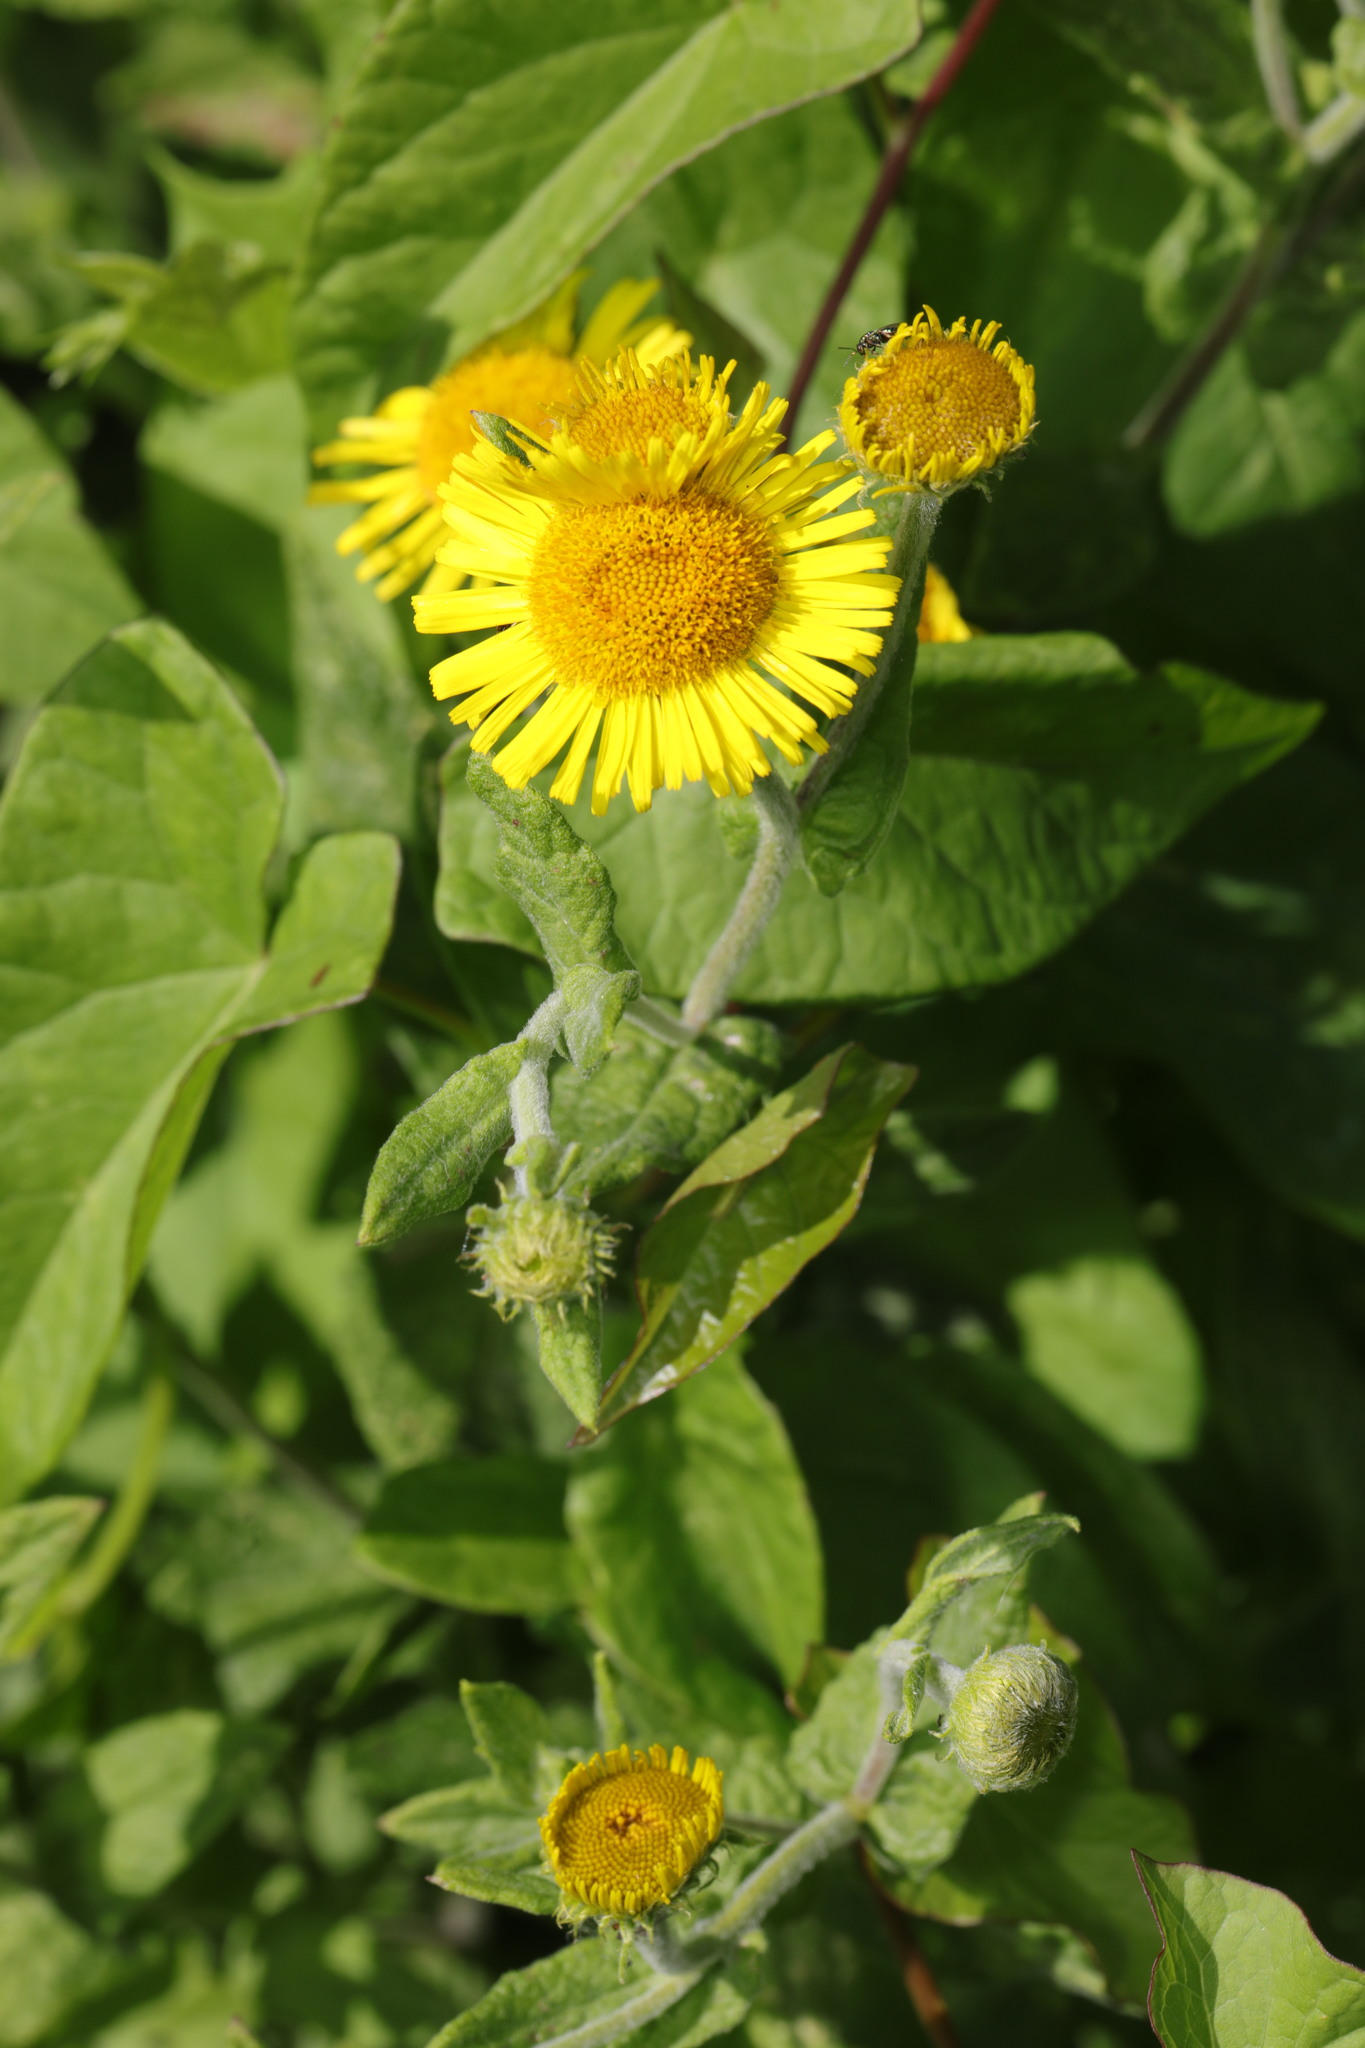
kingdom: Plantae
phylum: Tracheophyta
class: Magnoliopsida
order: Asterales
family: Asteraceae
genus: Pulicaria
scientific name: Pulicaria dysenterica
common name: Common fleabane
